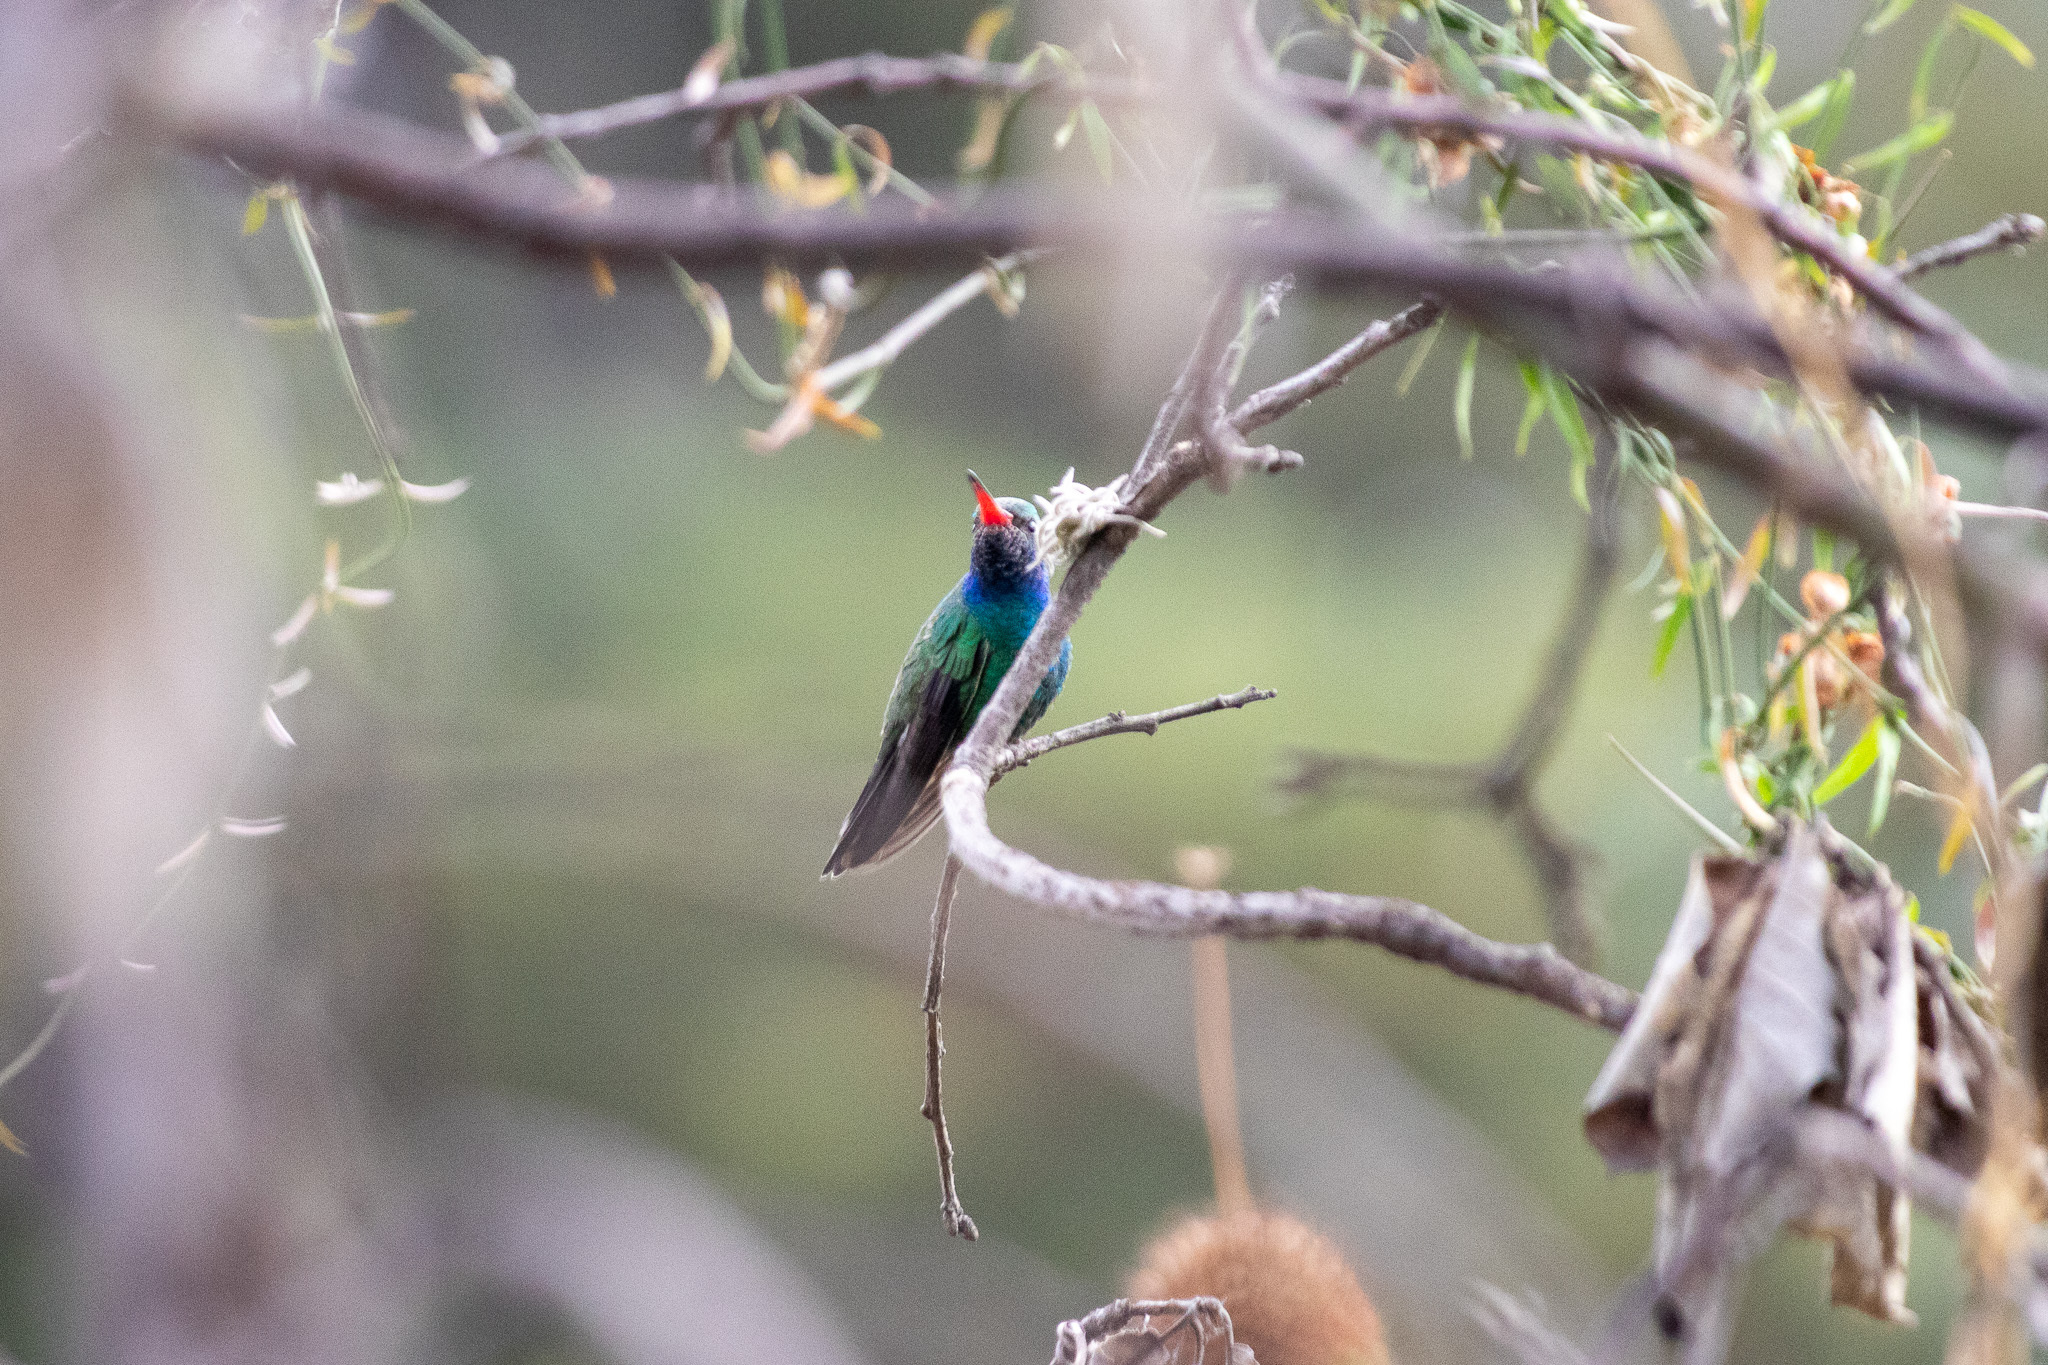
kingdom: Animalia
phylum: Chordata
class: Aves
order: Apodiformes
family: Trochilidae
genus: Cynanthus
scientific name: Cynanthus latirostris
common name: Broad-billed hummingbird
